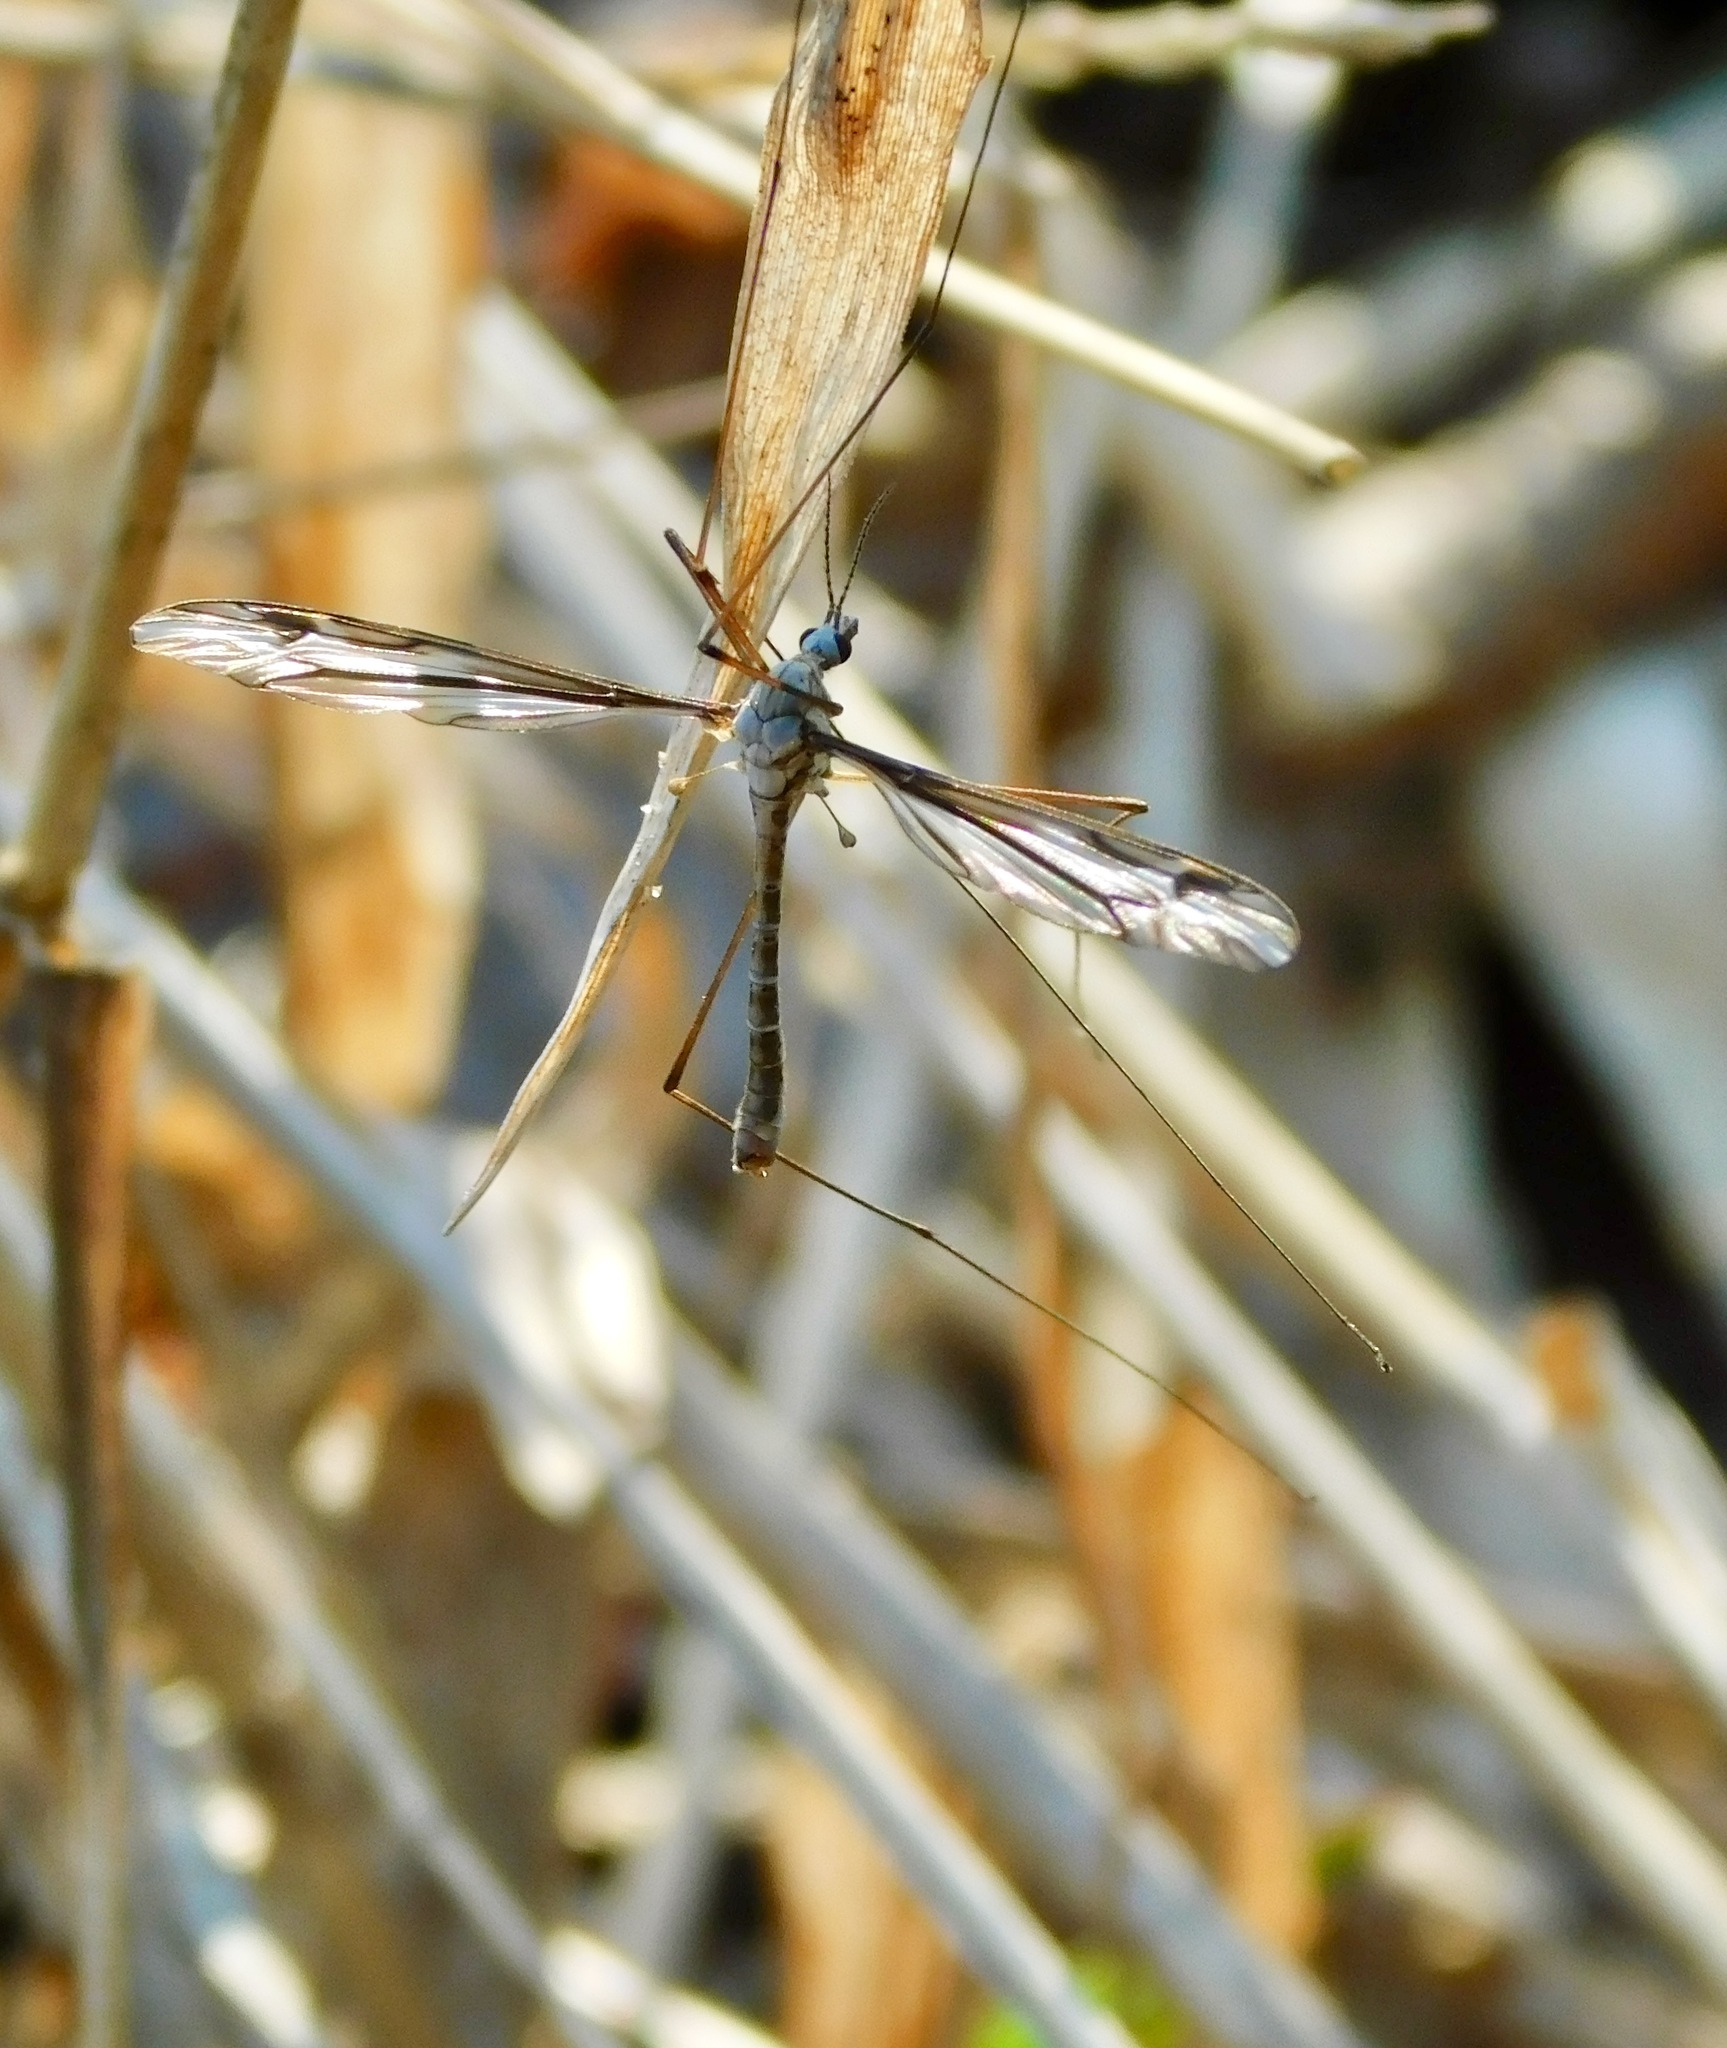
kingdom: Animalia
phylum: Arthropoda
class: Insecta
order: Diptera
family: Tipulidae
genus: Tipula
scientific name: Tipula furca
